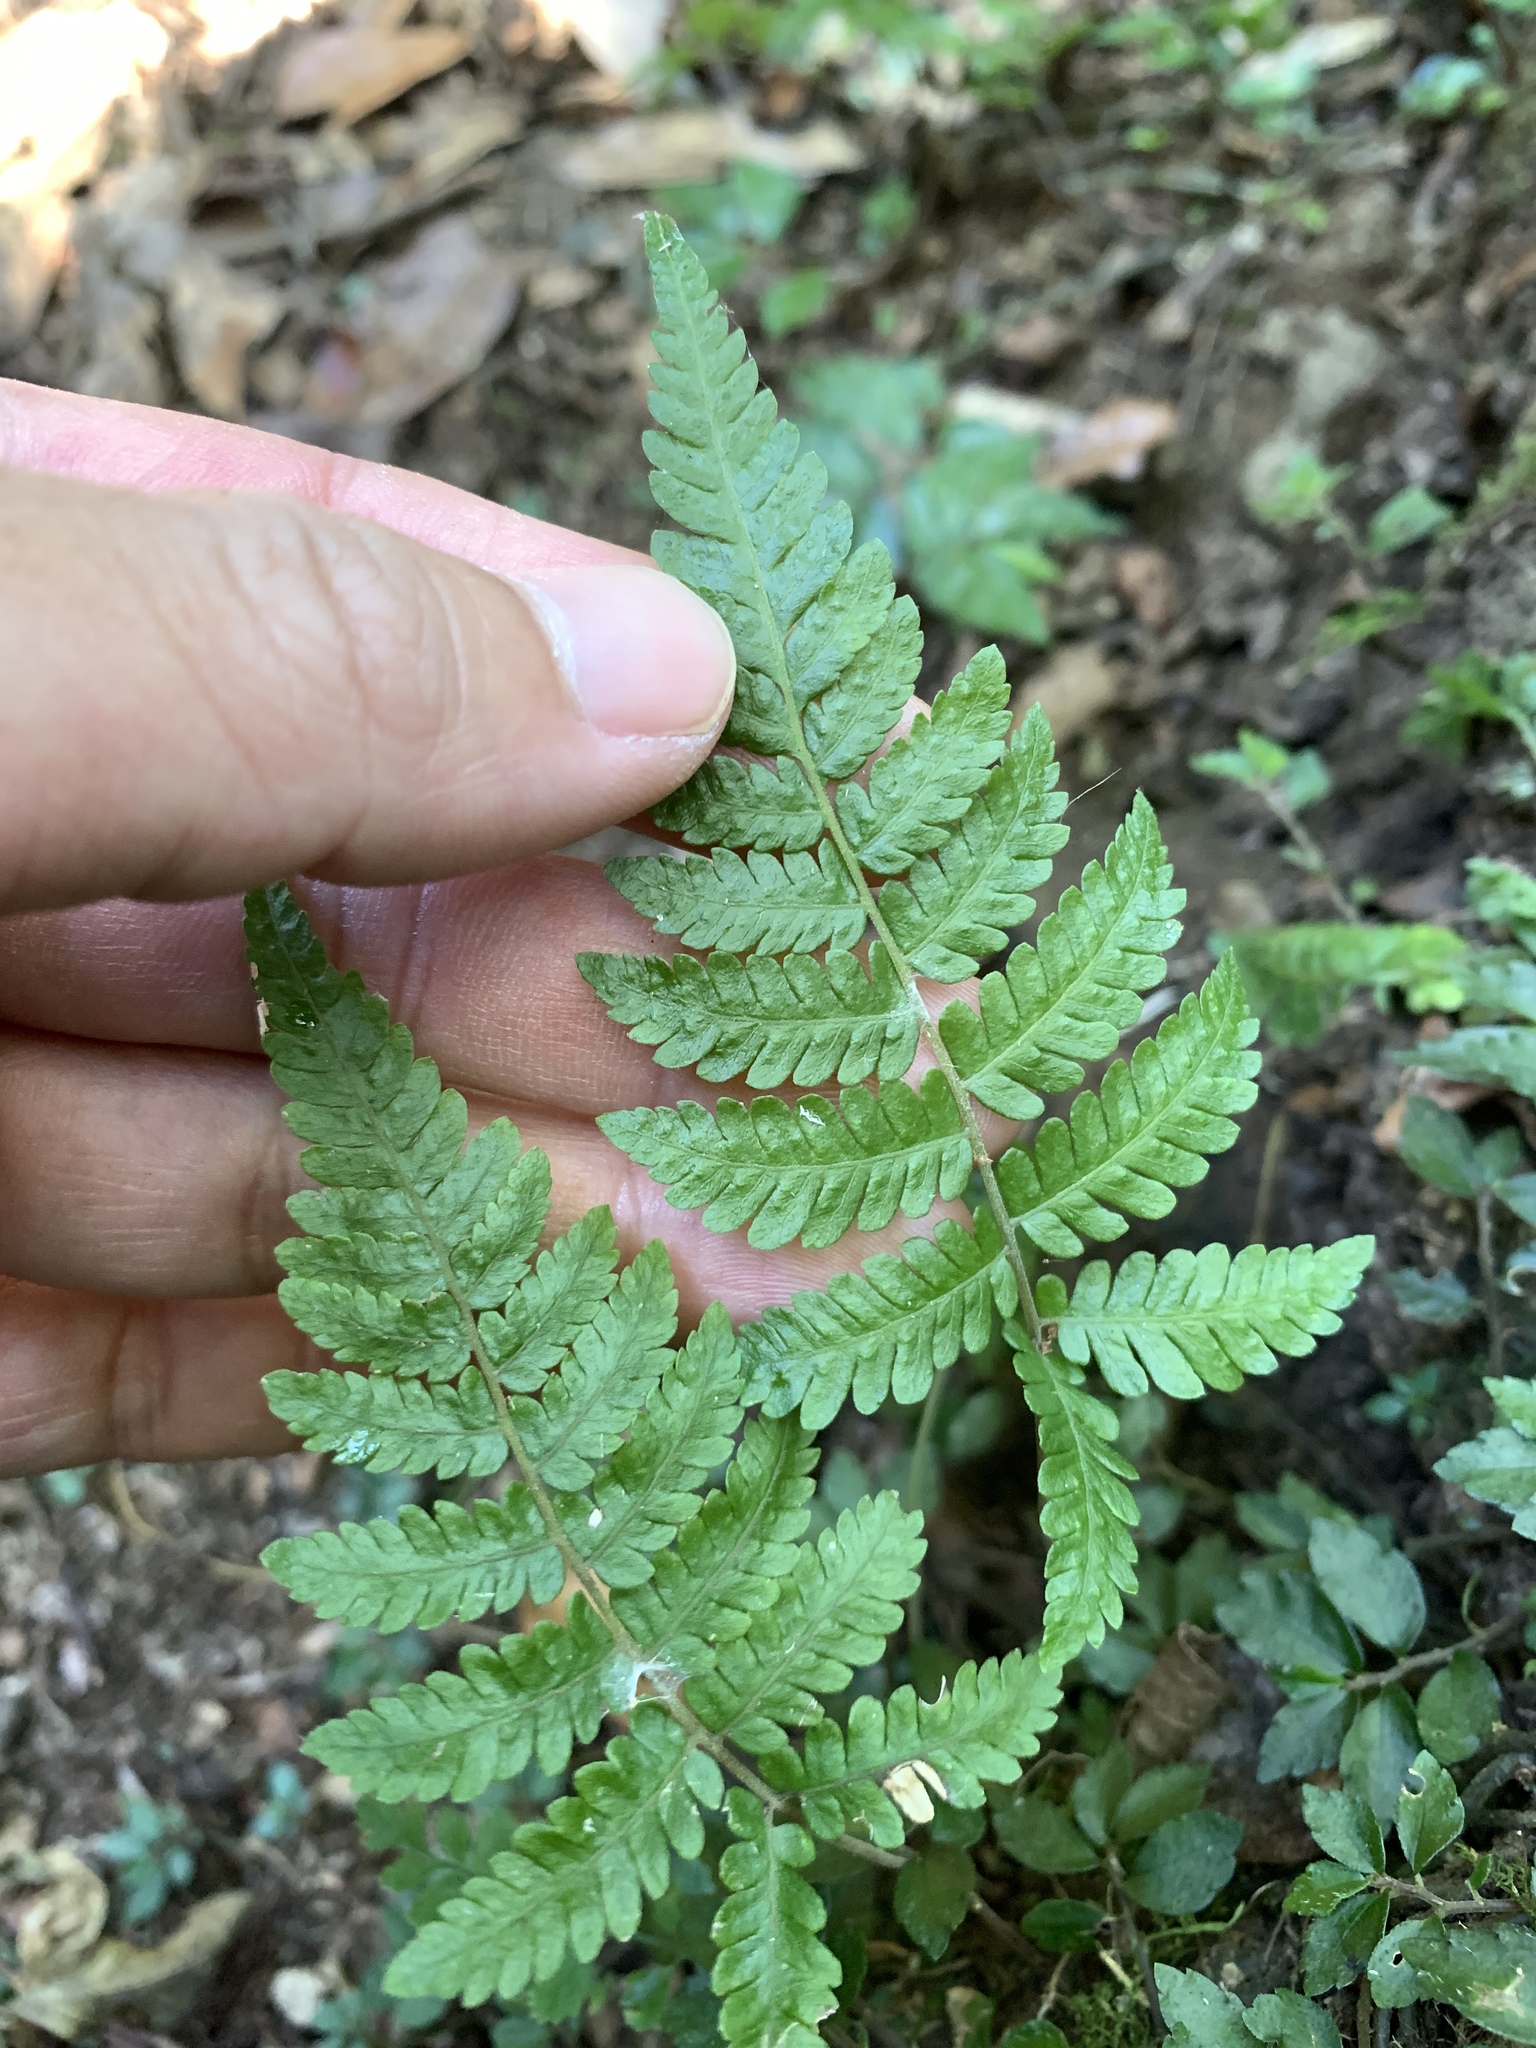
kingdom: Plantae
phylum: Tracheophyta
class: Polypodiopsida
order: Polypodiales
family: Thelypteridaceae
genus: Metathelypteris
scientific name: Metathelypteris adscendens
